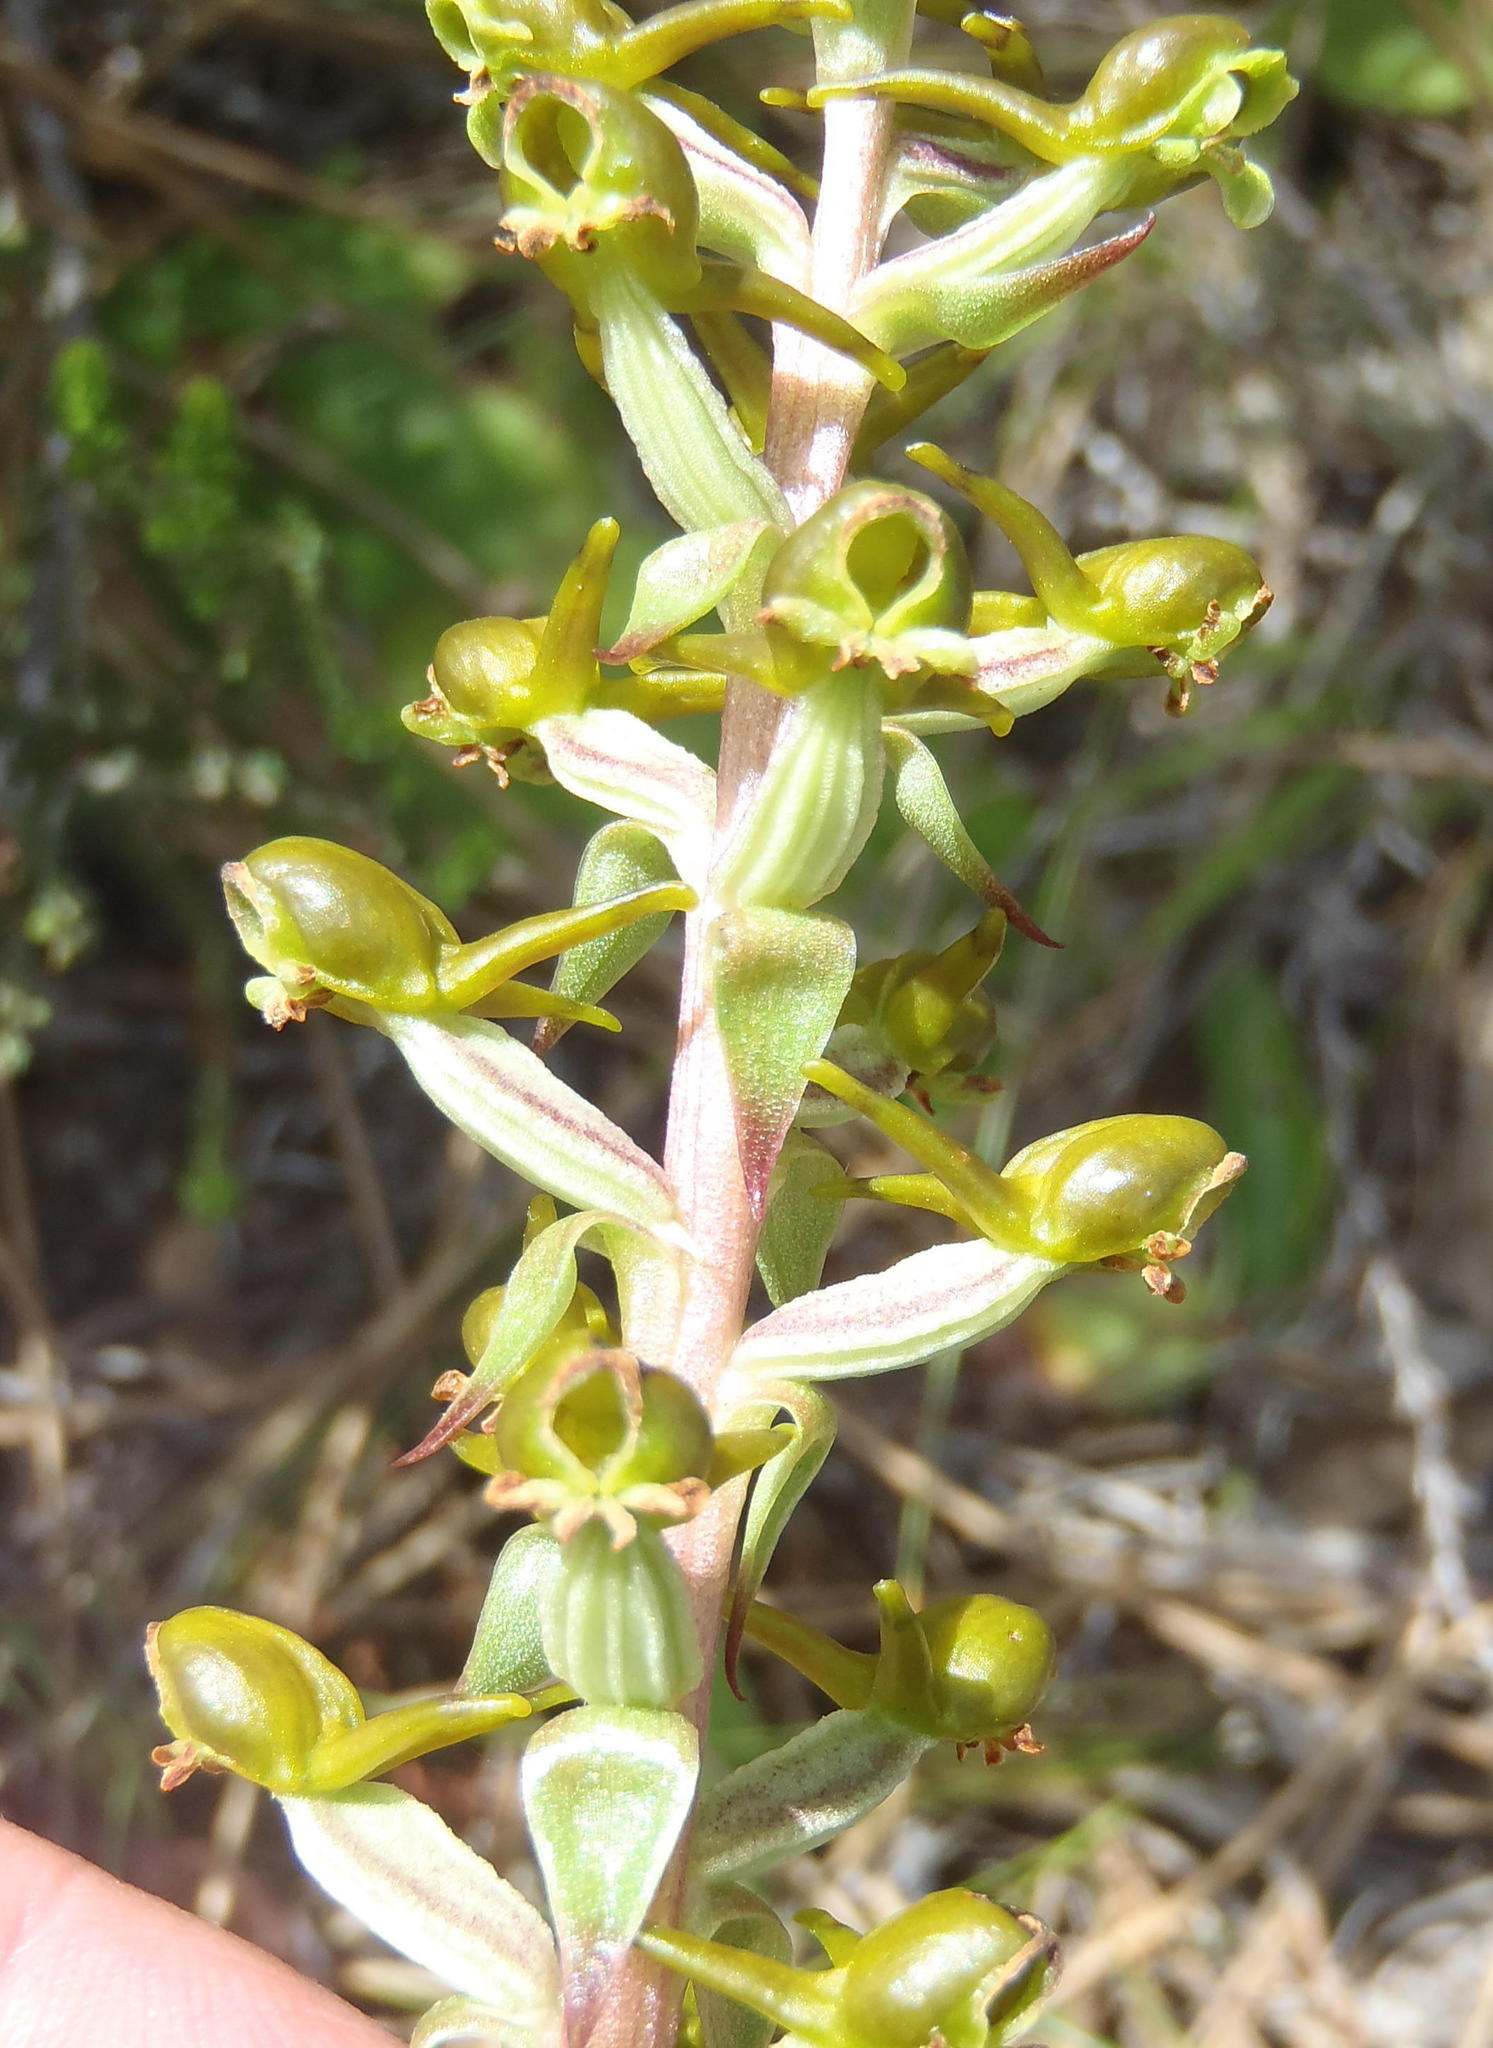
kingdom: Plantae
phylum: Tracheophyta
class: Liliopsida
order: Asparagales
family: Orchidaceae
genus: Satyrium
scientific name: Satyrium parviflorum
